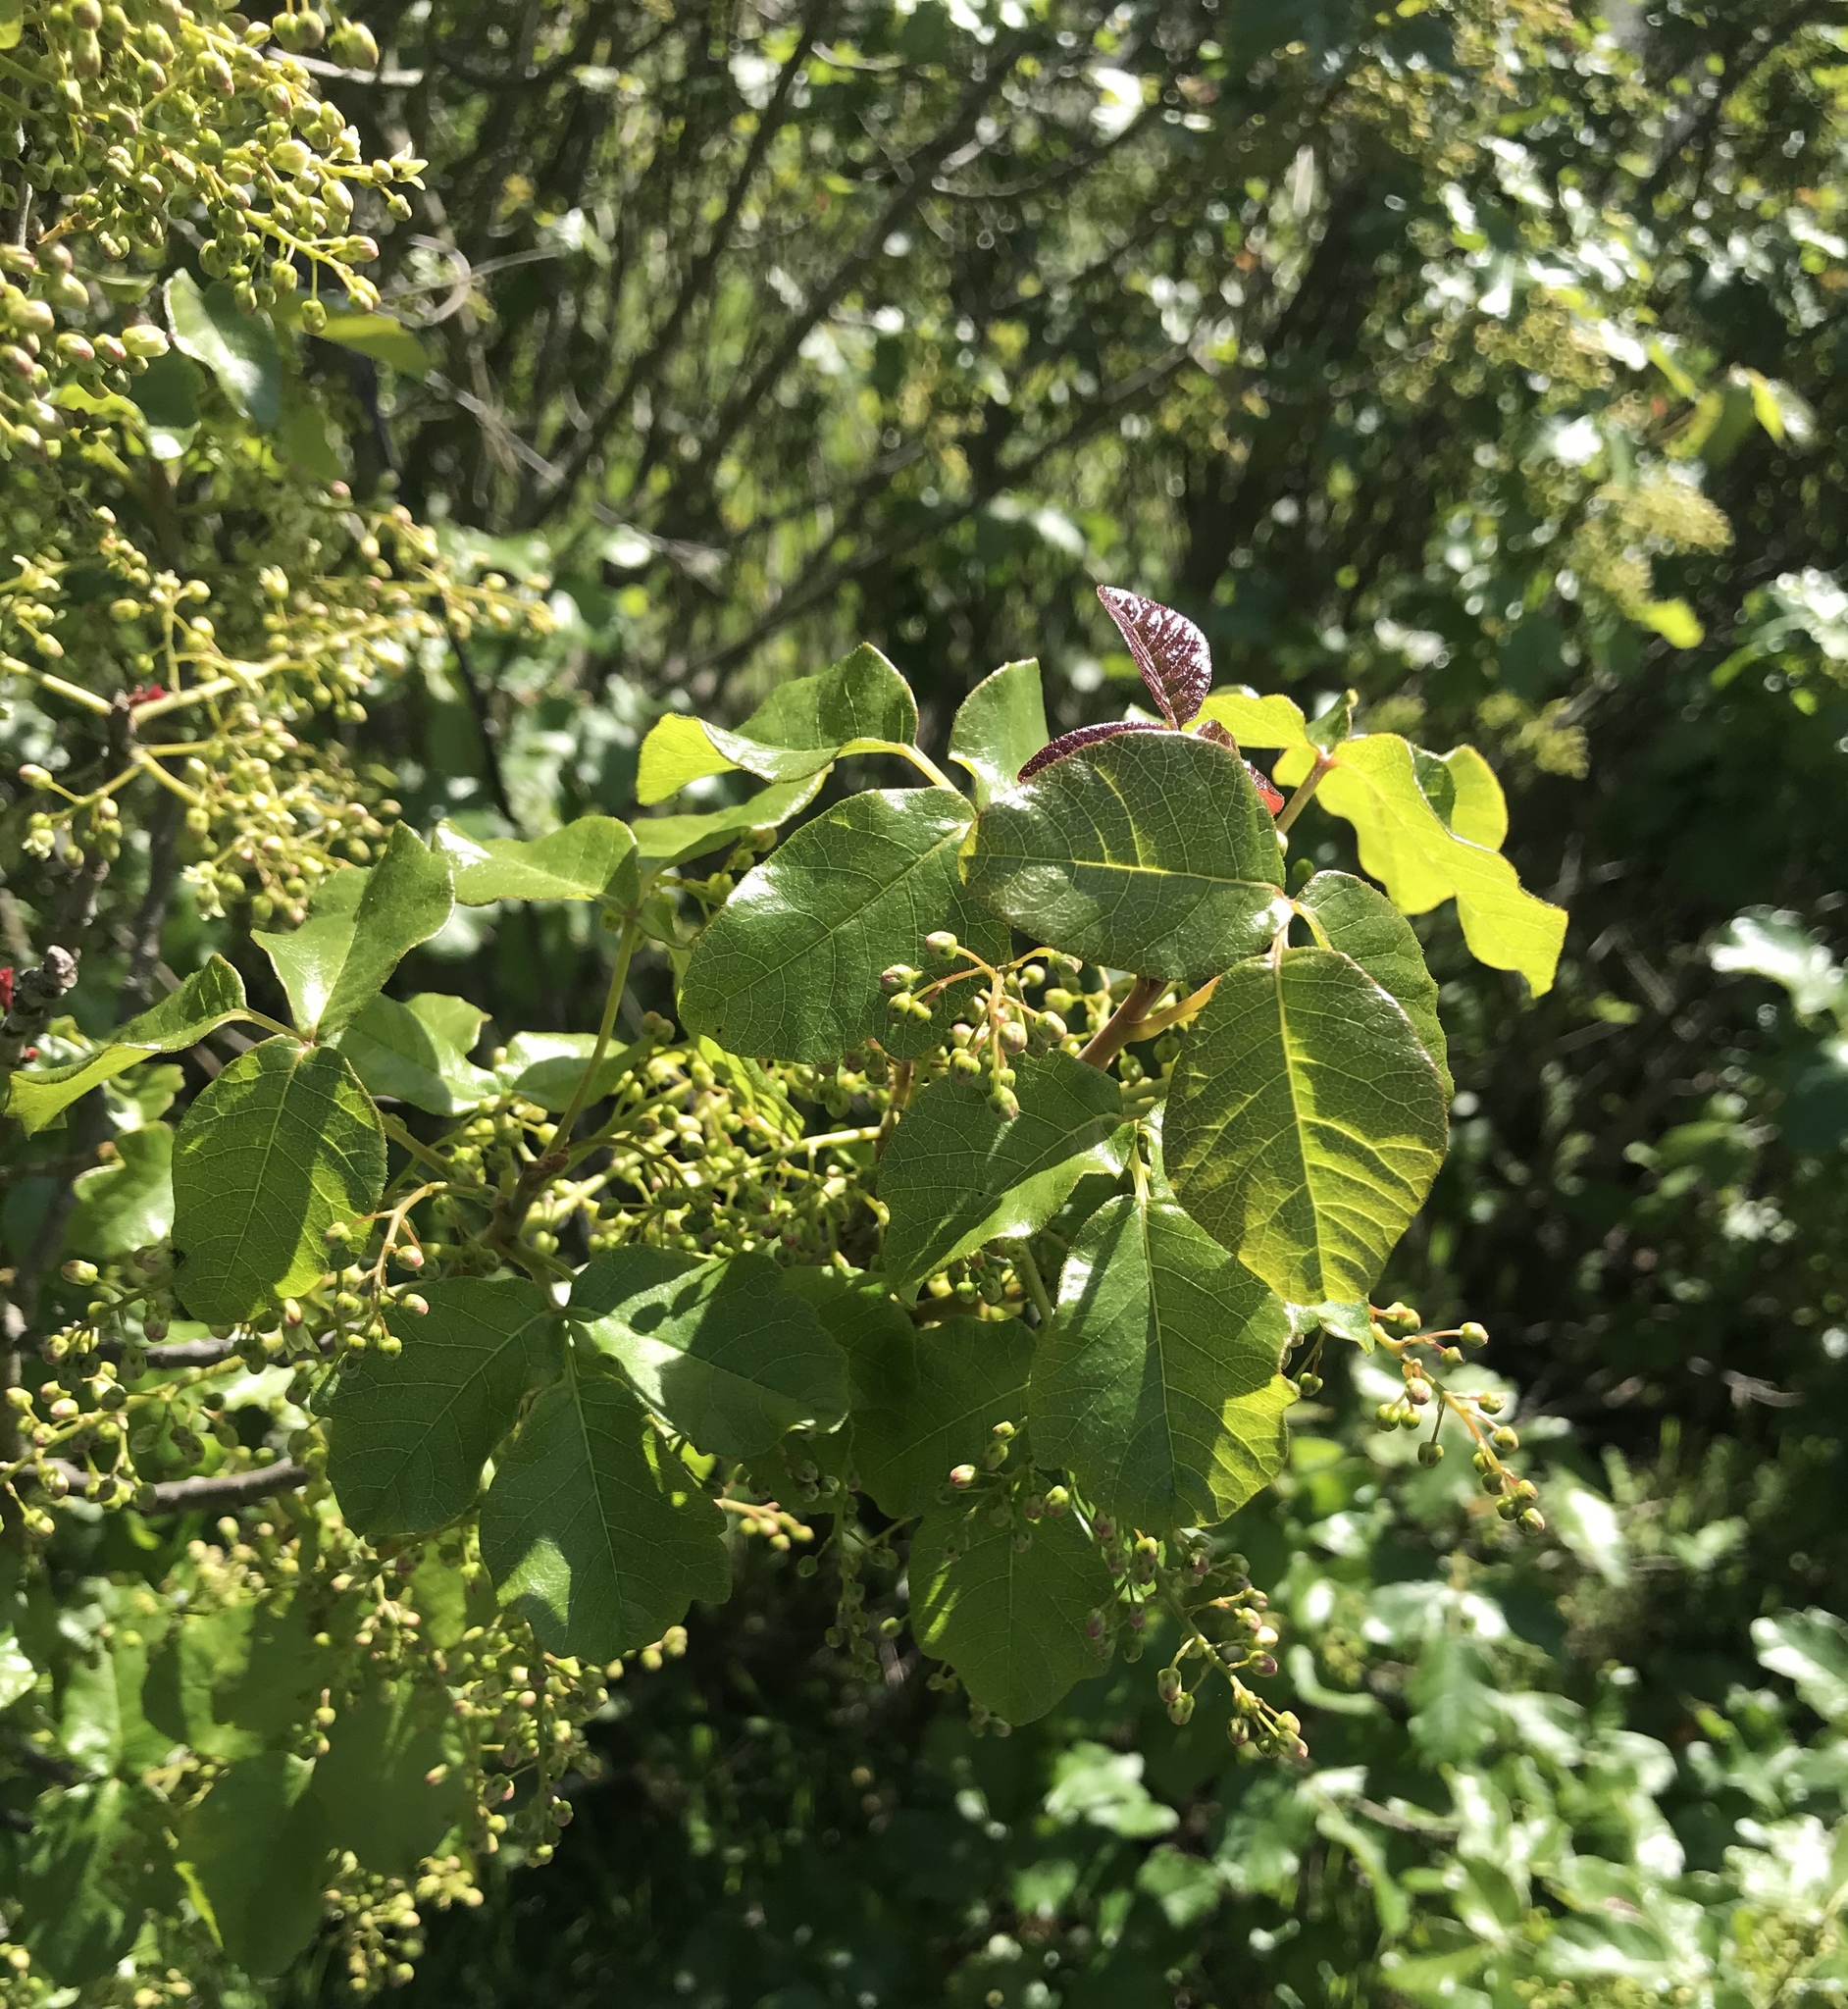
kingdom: Plantae
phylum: Tracheophyta
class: Magnoliopsida
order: Sapindales
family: Anacardiaceae
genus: Toxicodendron
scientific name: Toxicodendron diversilobum
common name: Pacific poison-oak
